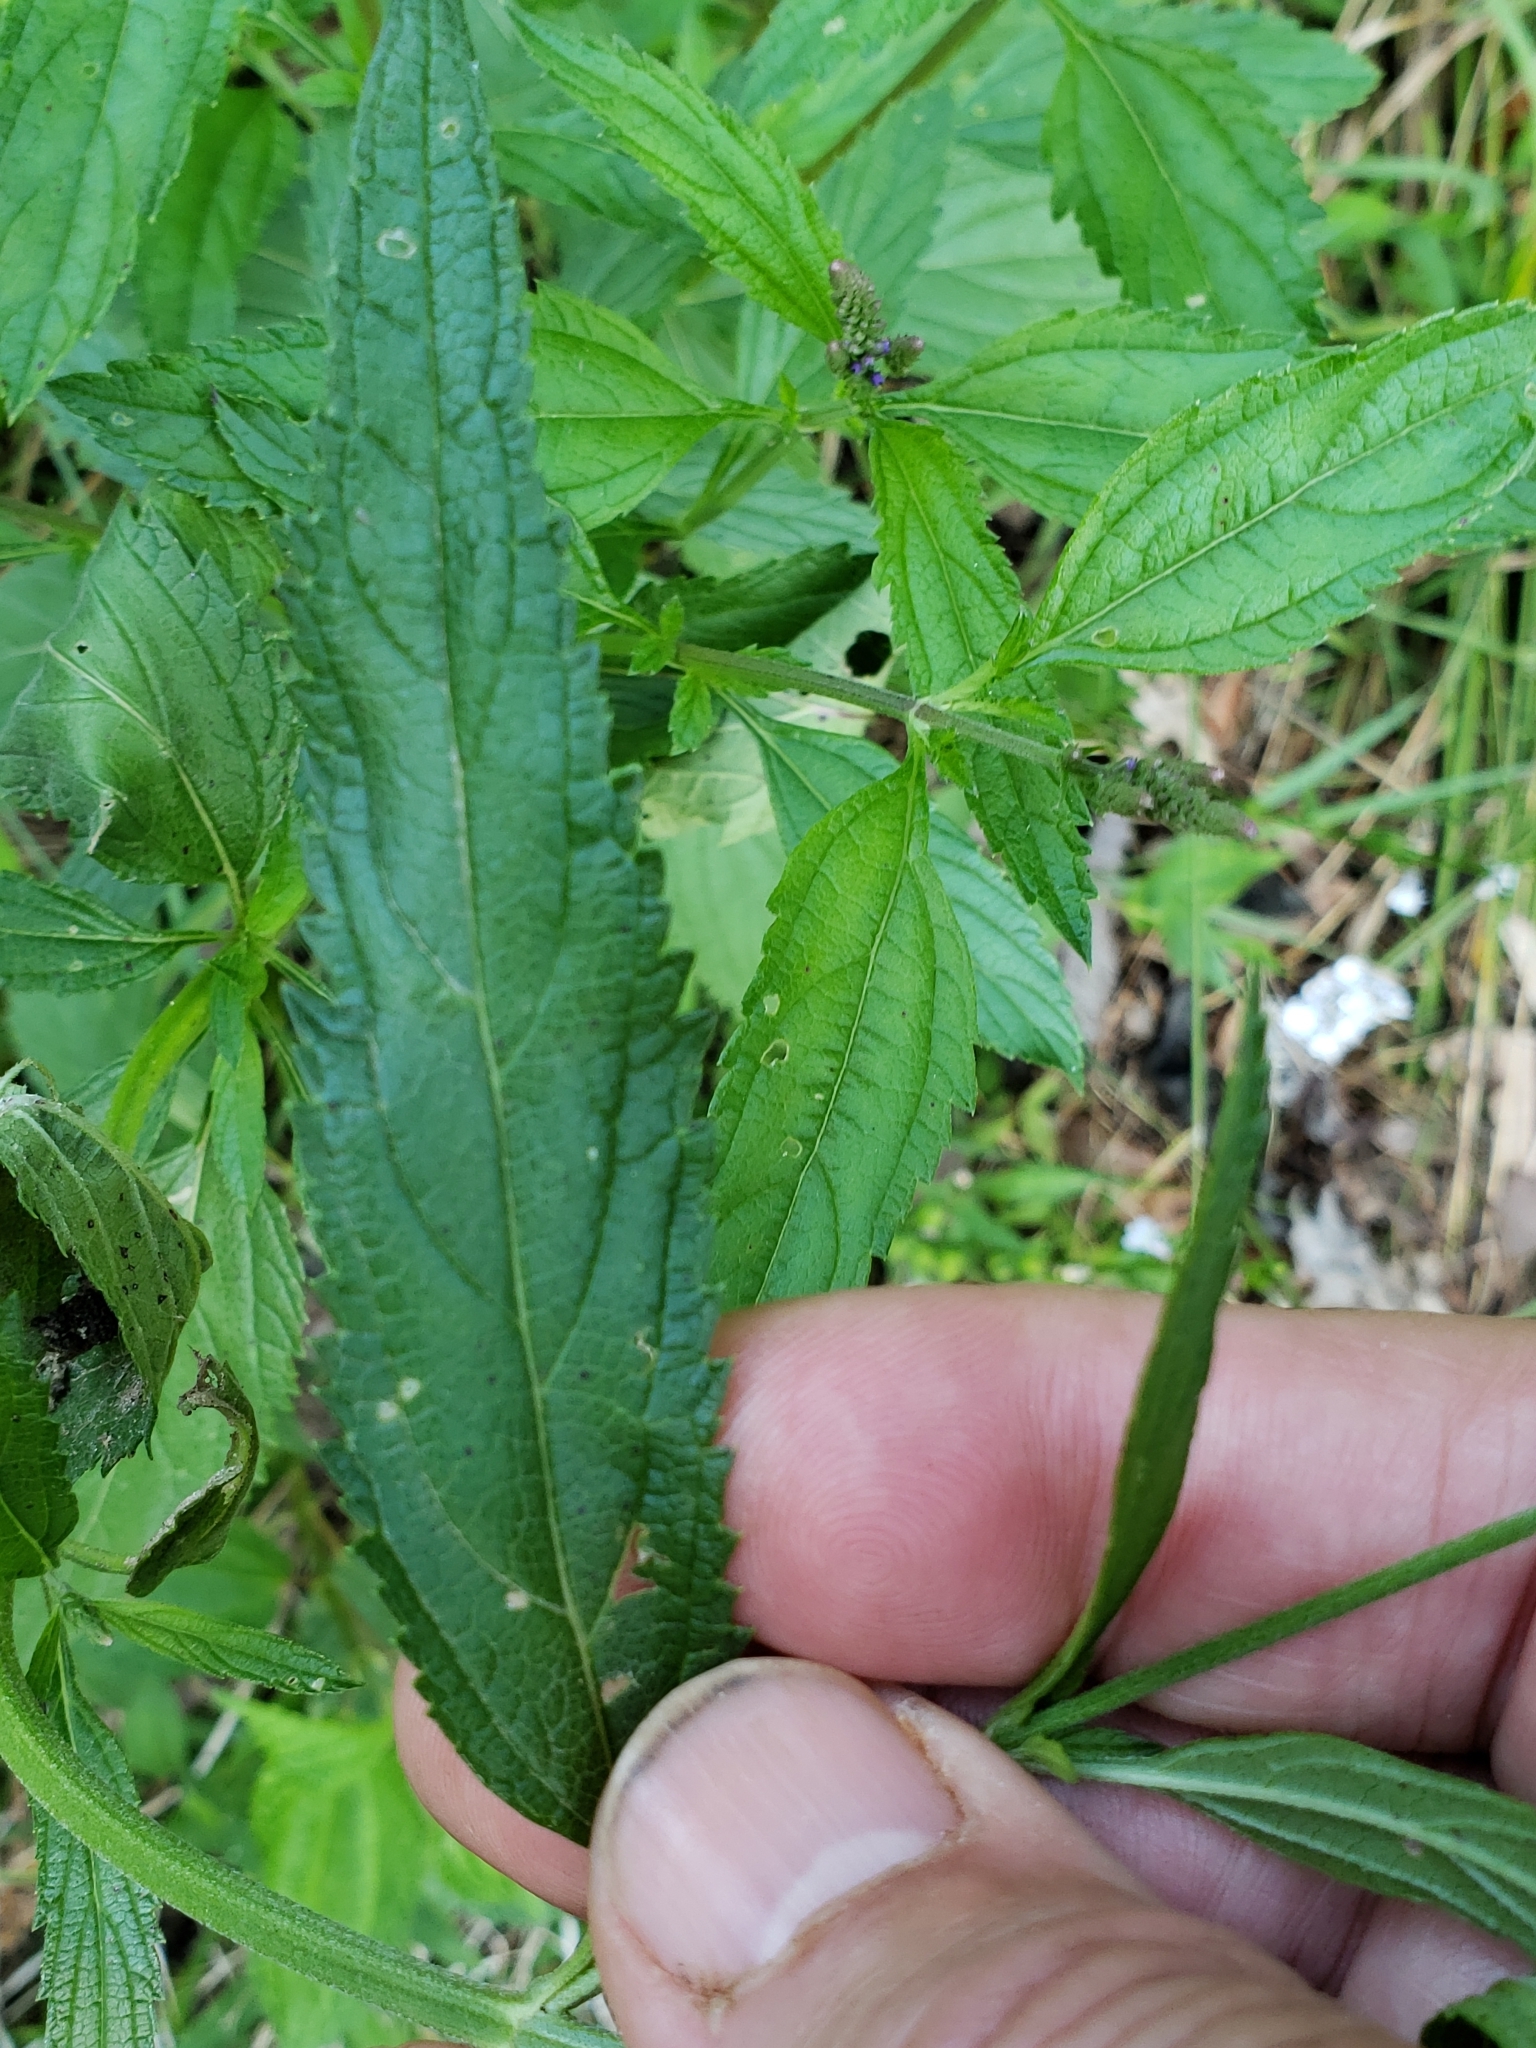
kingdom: Plantae
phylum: Tracheophyta
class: Magnoliopsida
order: Lamiales
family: Verbenaceae
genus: Verbena
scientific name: Verbena hastata
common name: American blue vervain
